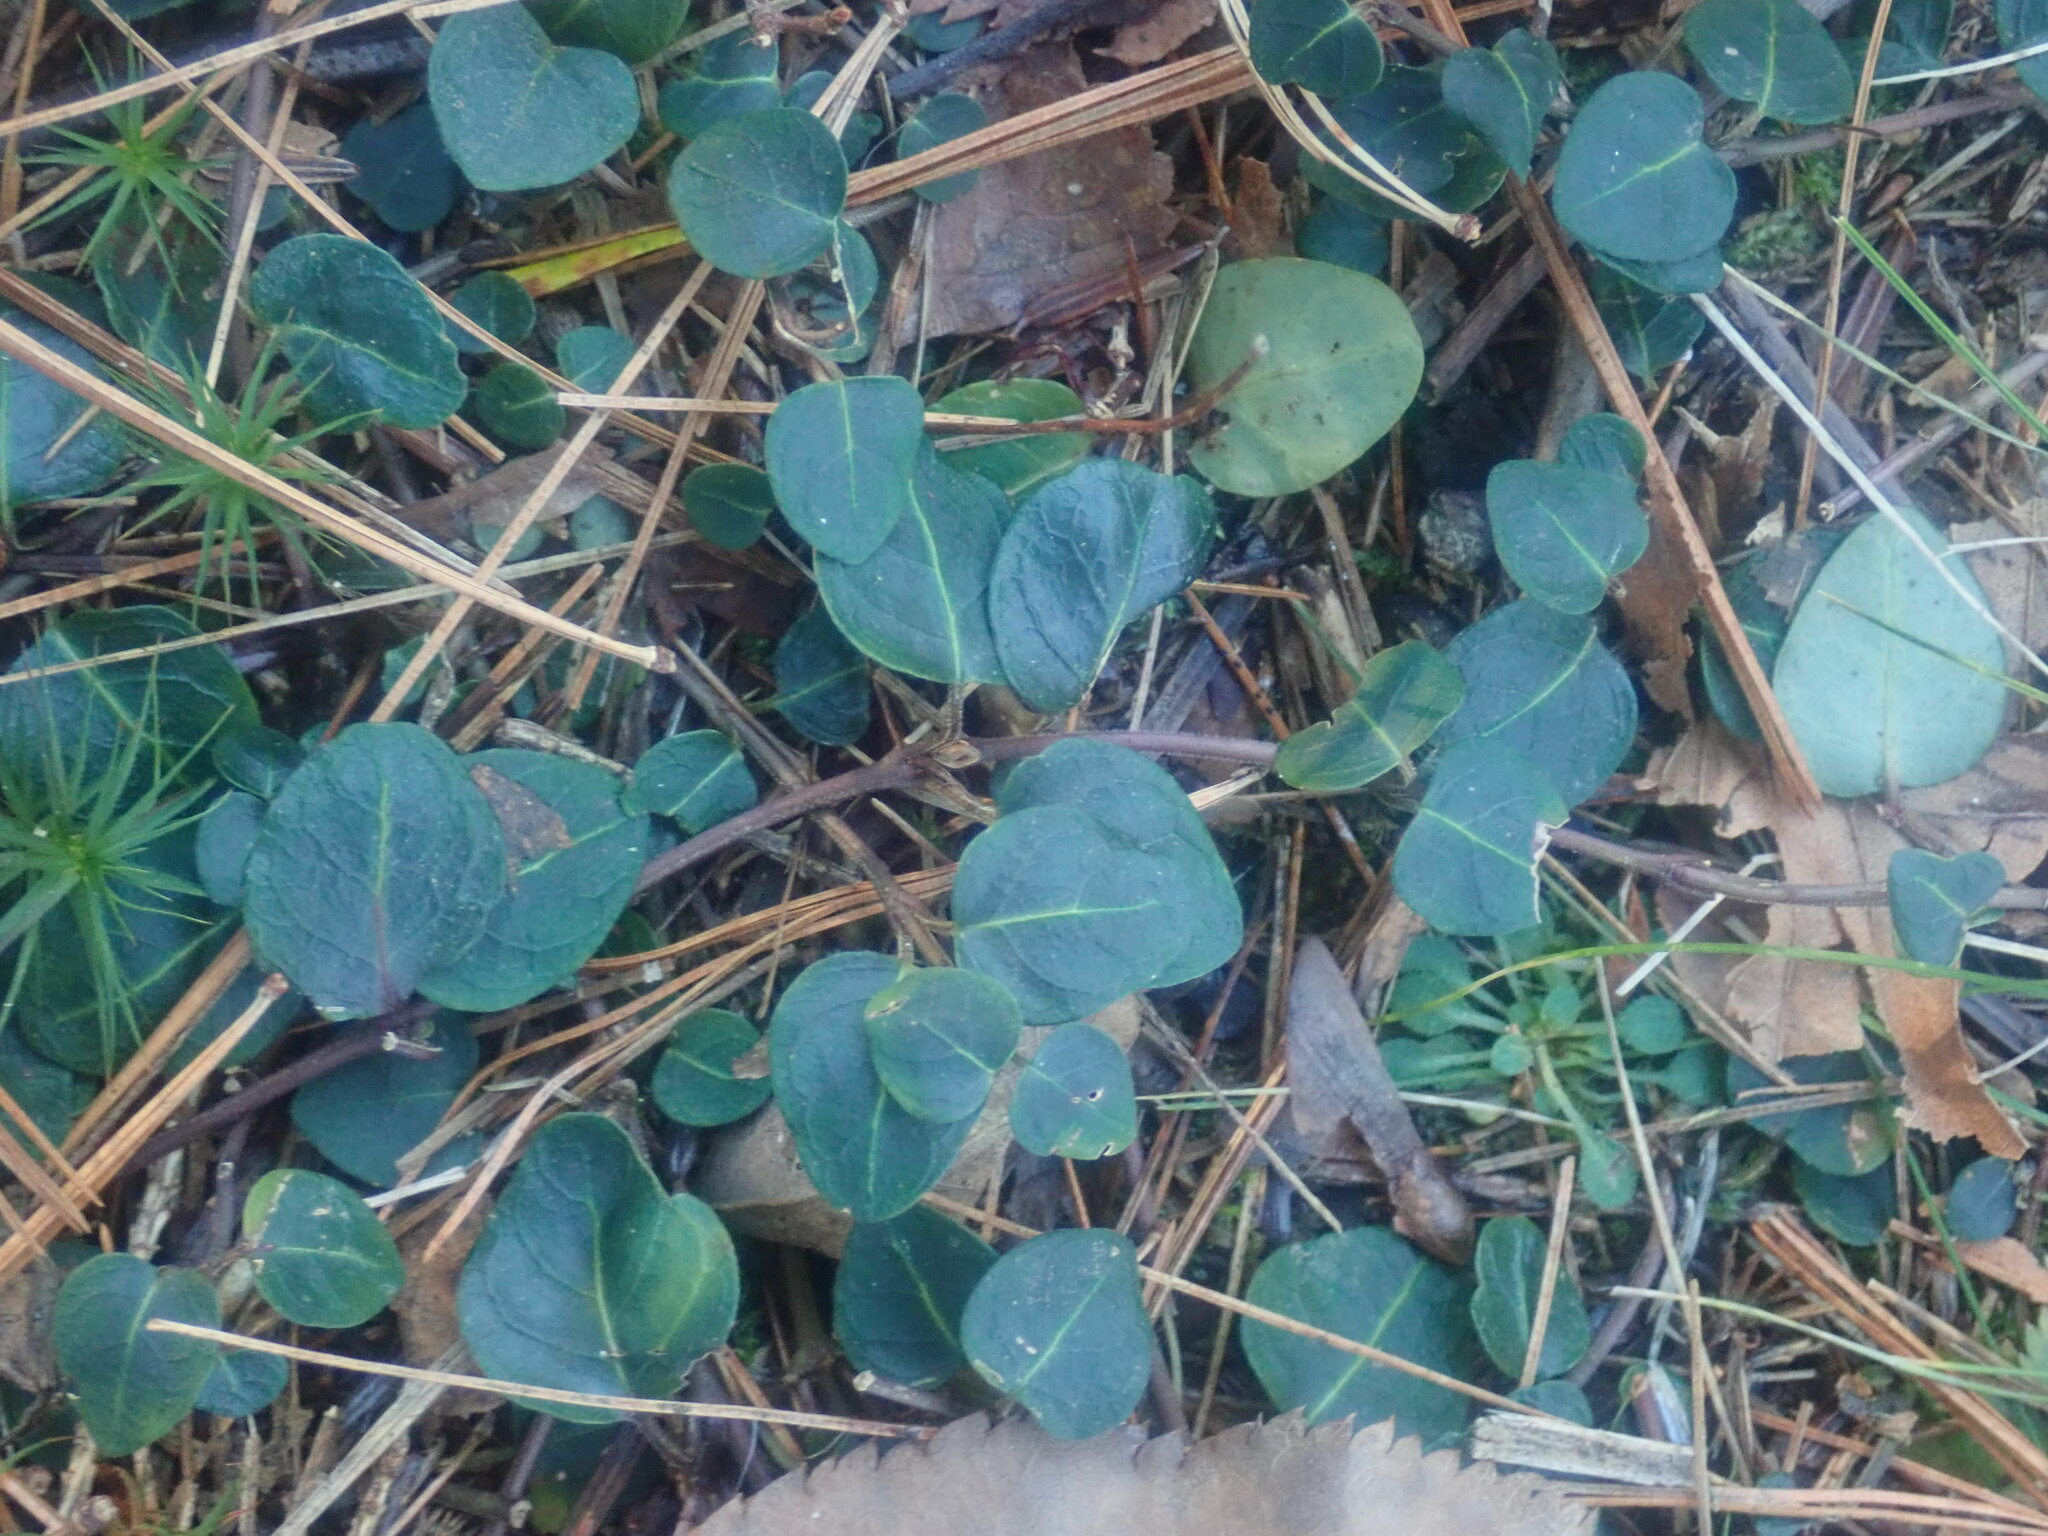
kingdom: Plantae
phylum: Tracheophyta
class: Magnoliopsida
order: Gentianales
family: Rubiaceae
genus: Mitchella
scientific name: Mitchella repens
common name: Partridge-berry
